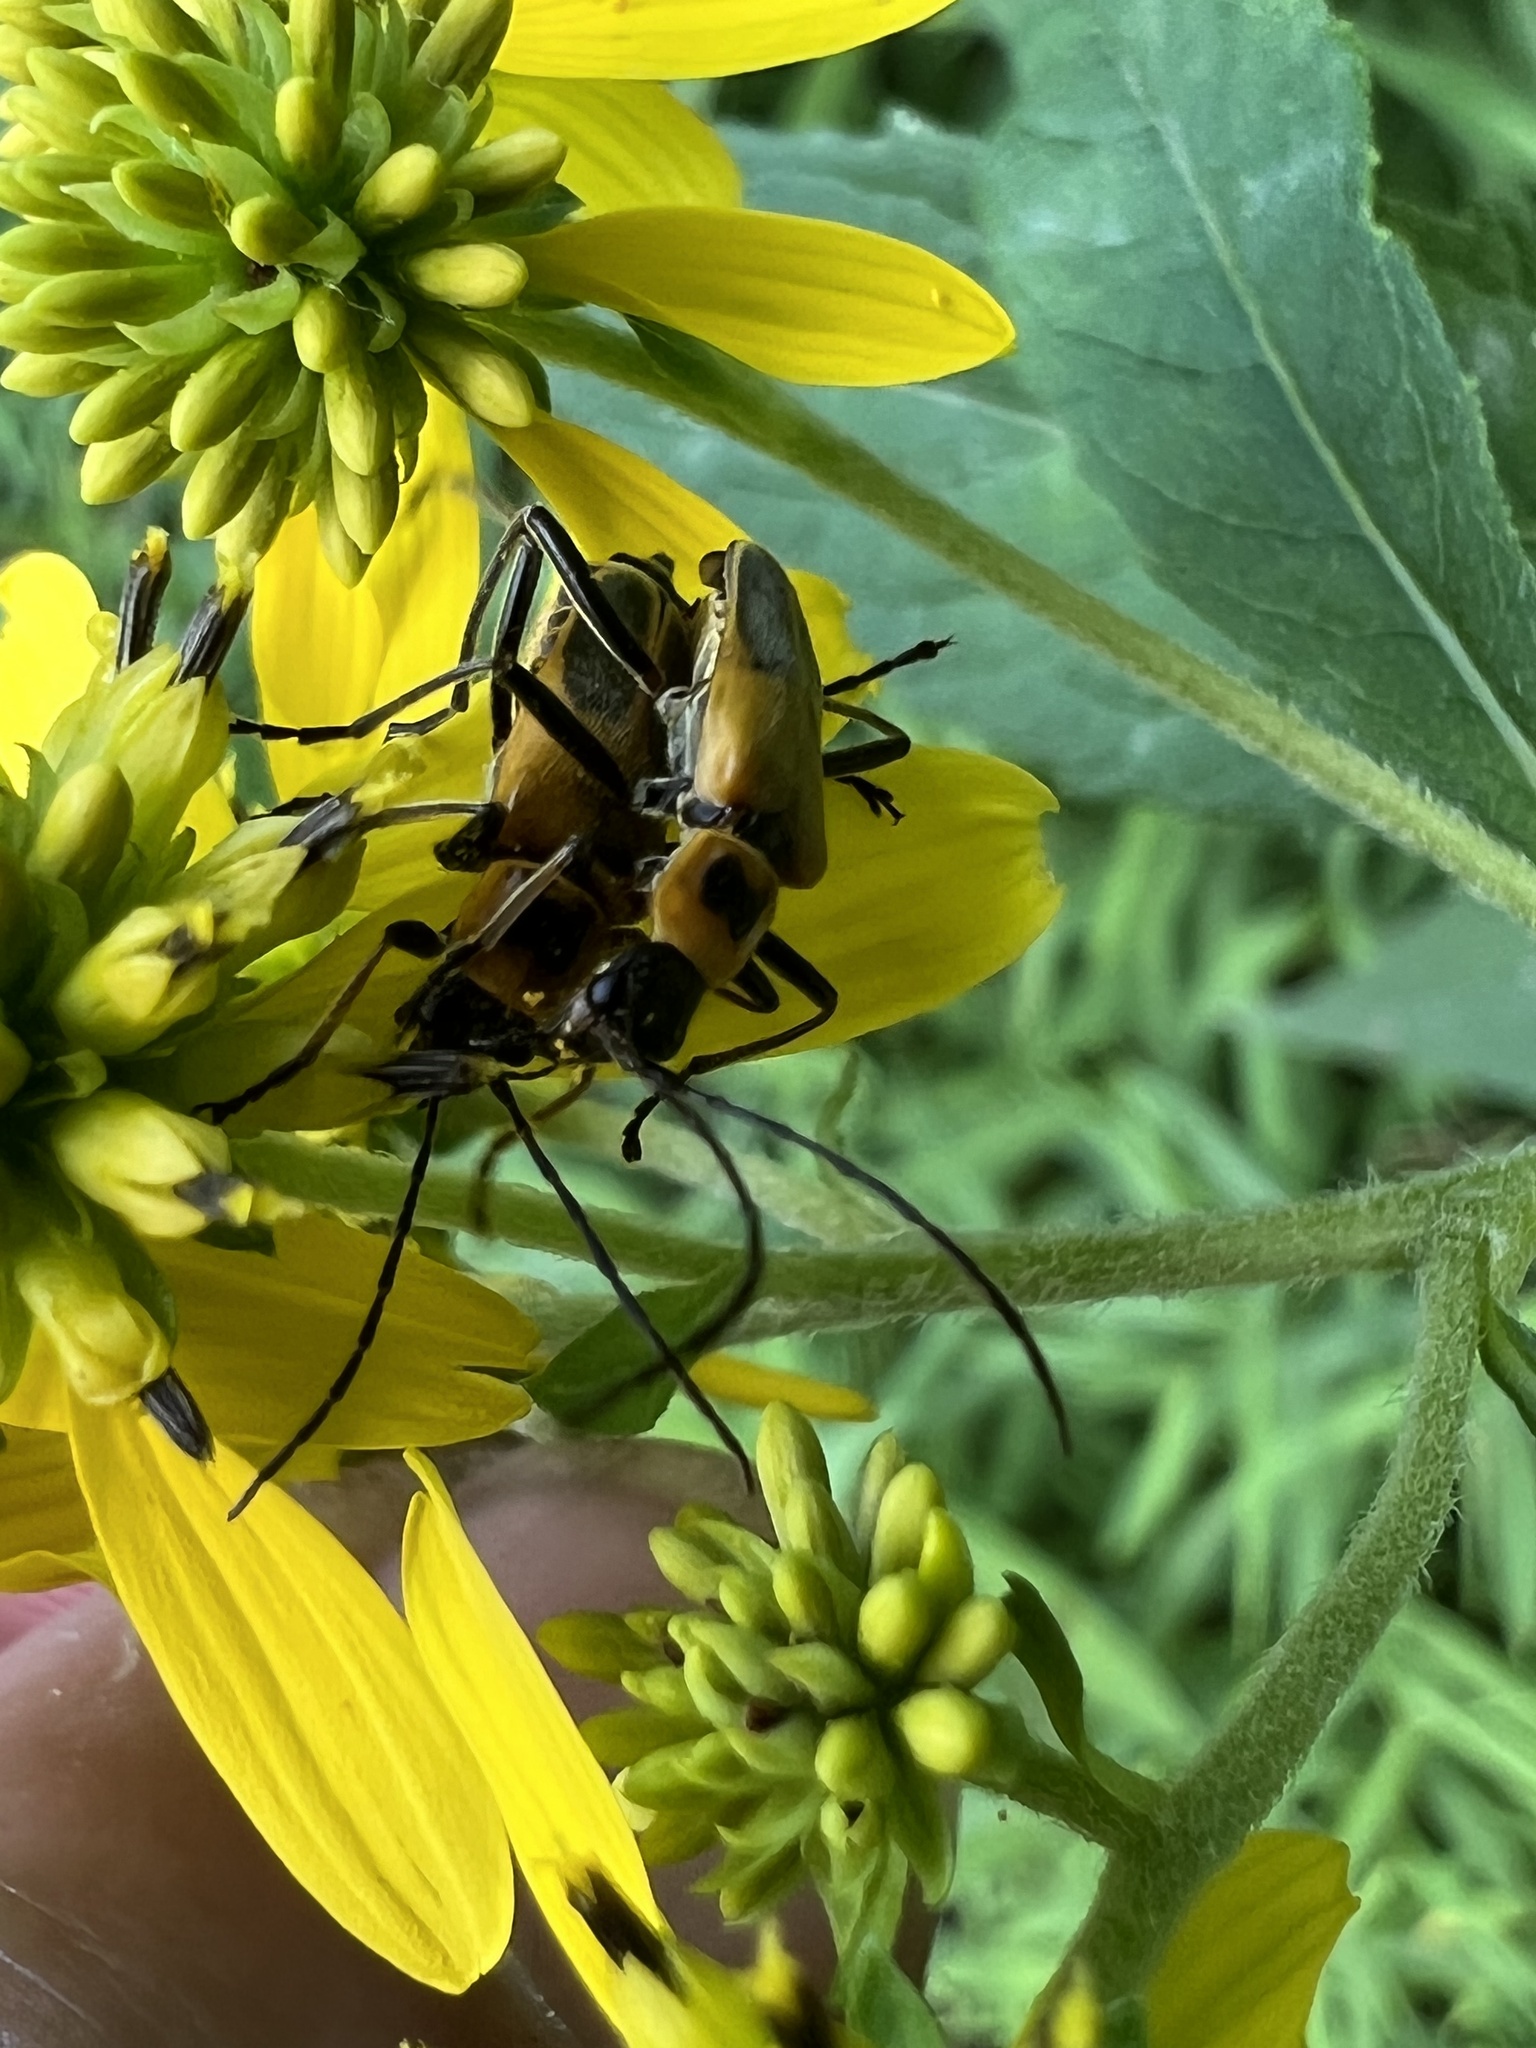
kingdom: Animalia
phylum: Arthropoda
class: Insecta
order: Coleoptera
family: Cantharidae
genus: Chauliognathus
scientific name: Chauliognathus pensylvanicus
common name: Goldenrod soldier beetle
